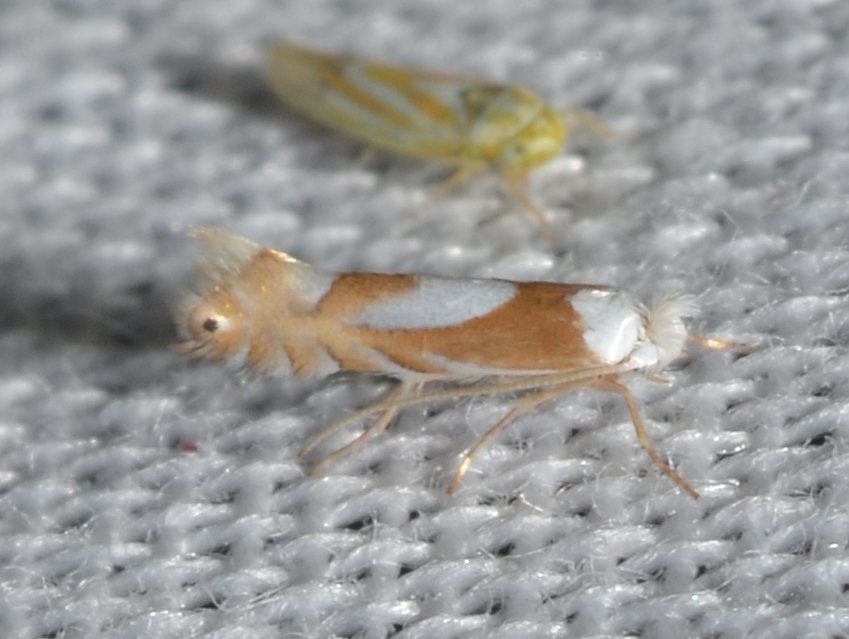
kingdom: Animalia
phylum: Arthropoda
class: Insecta
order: Lepidoptera
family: Gracillariidae
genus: Phyllonorycter
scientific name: Phyllonorycter fitchella
